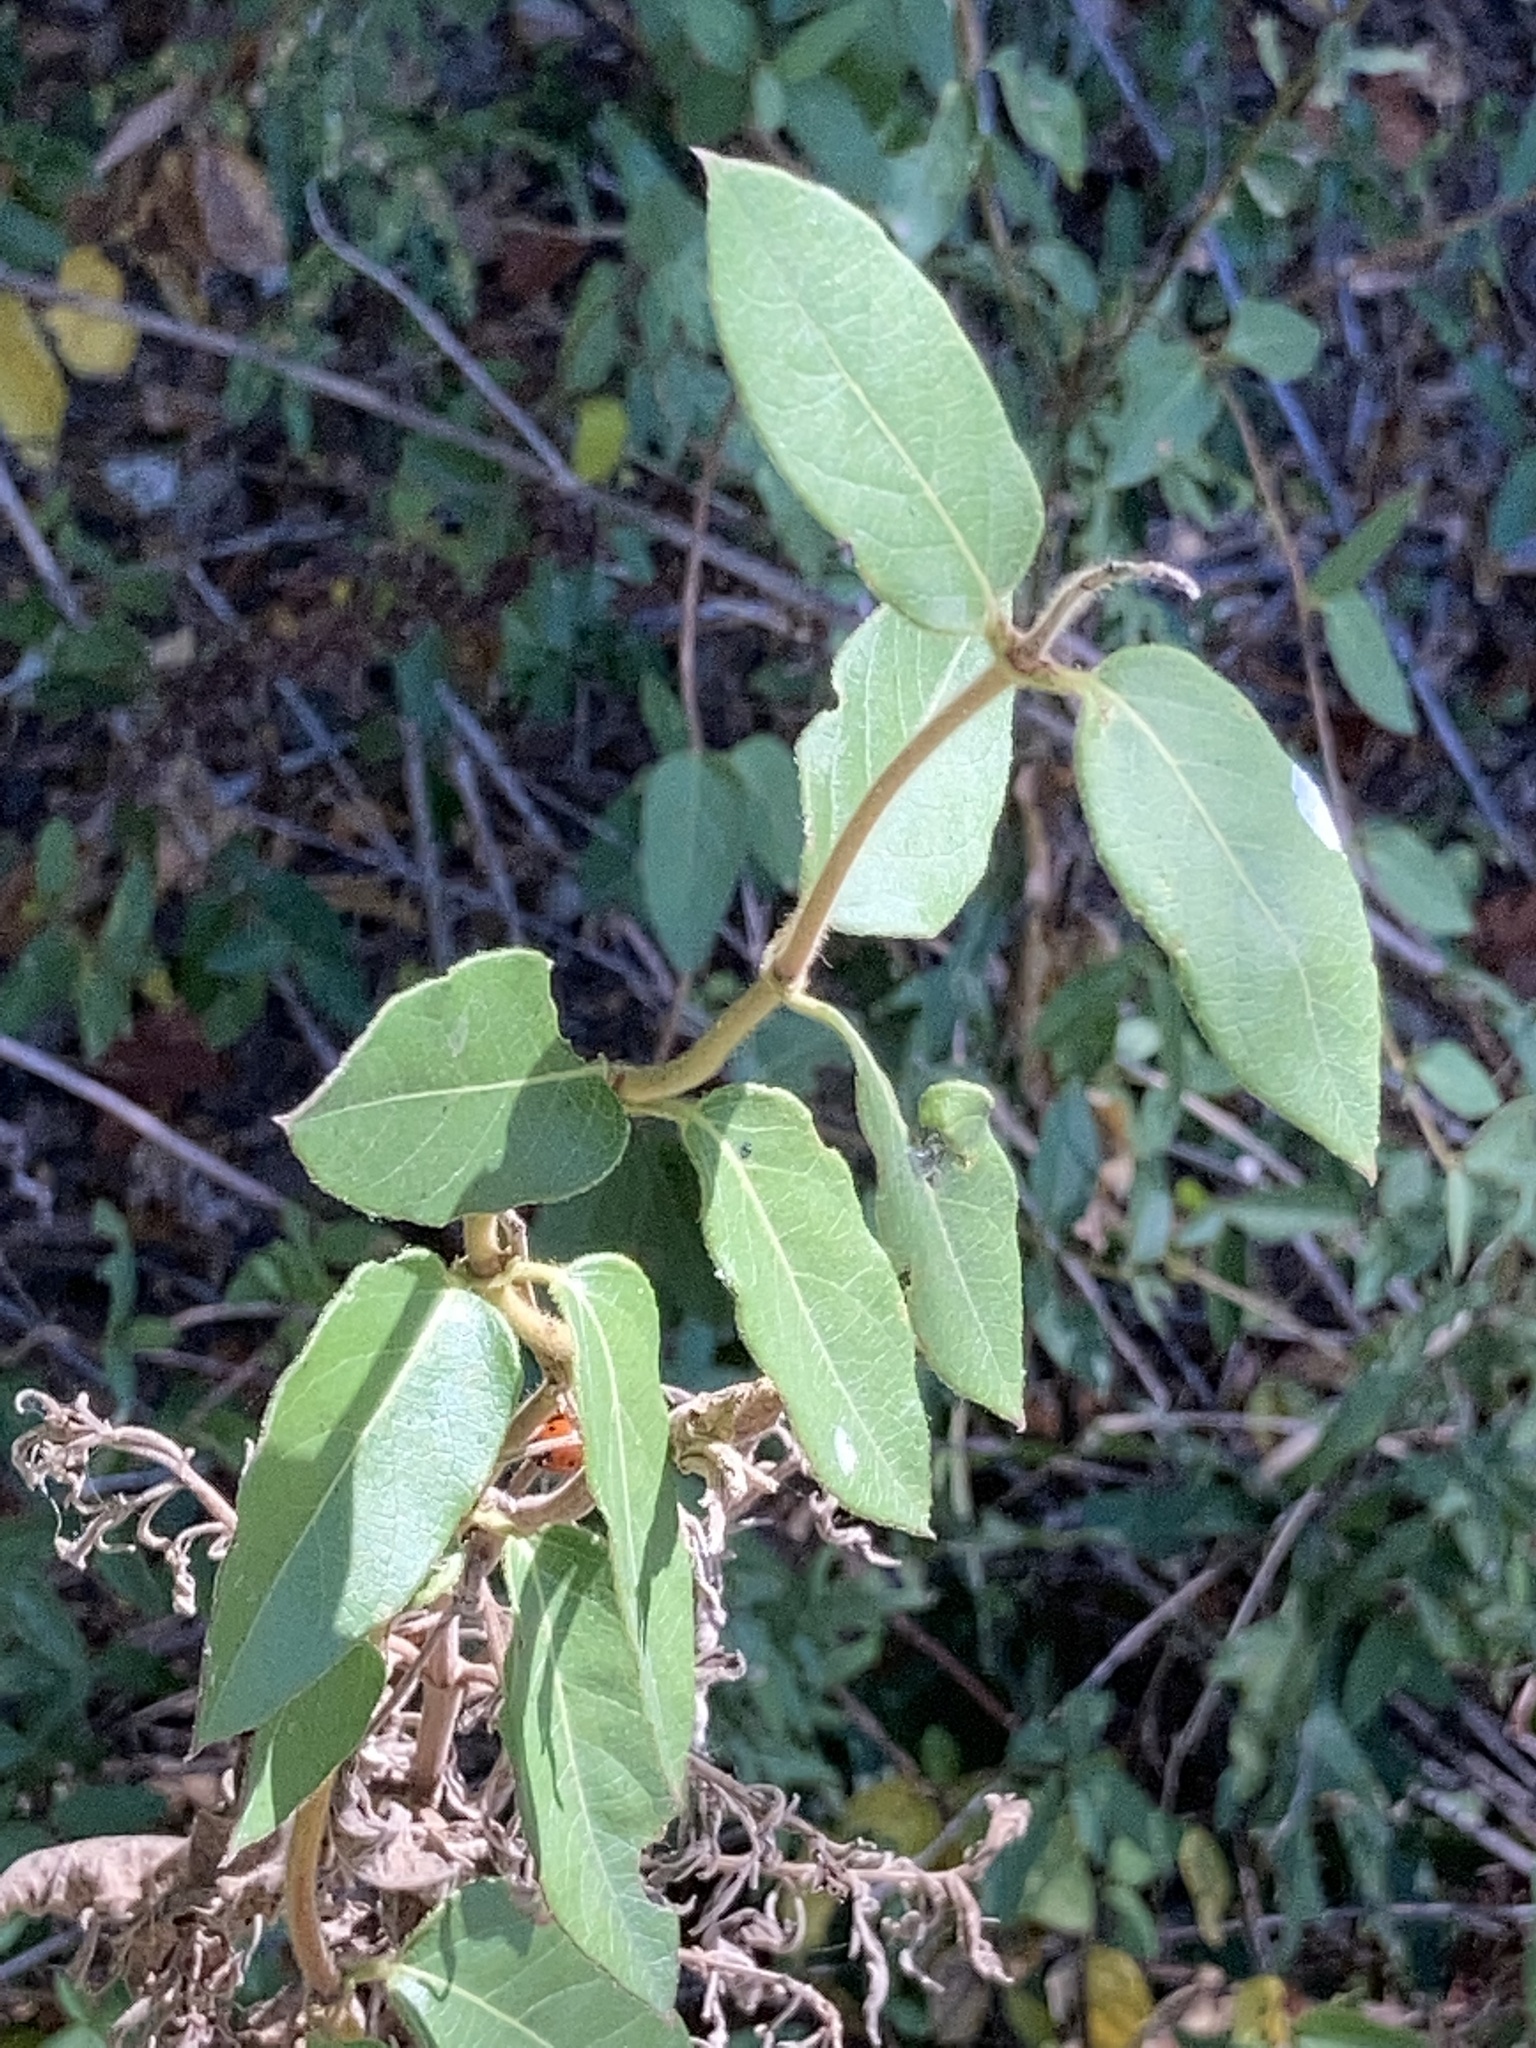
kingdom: Plantae
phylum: Tracheophyta
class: Magnoliopsida
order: Dipsacales
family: Caprifoliaceae
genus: Lonicera
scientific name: Lonicera japonica
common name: Japanese honeysuckle
